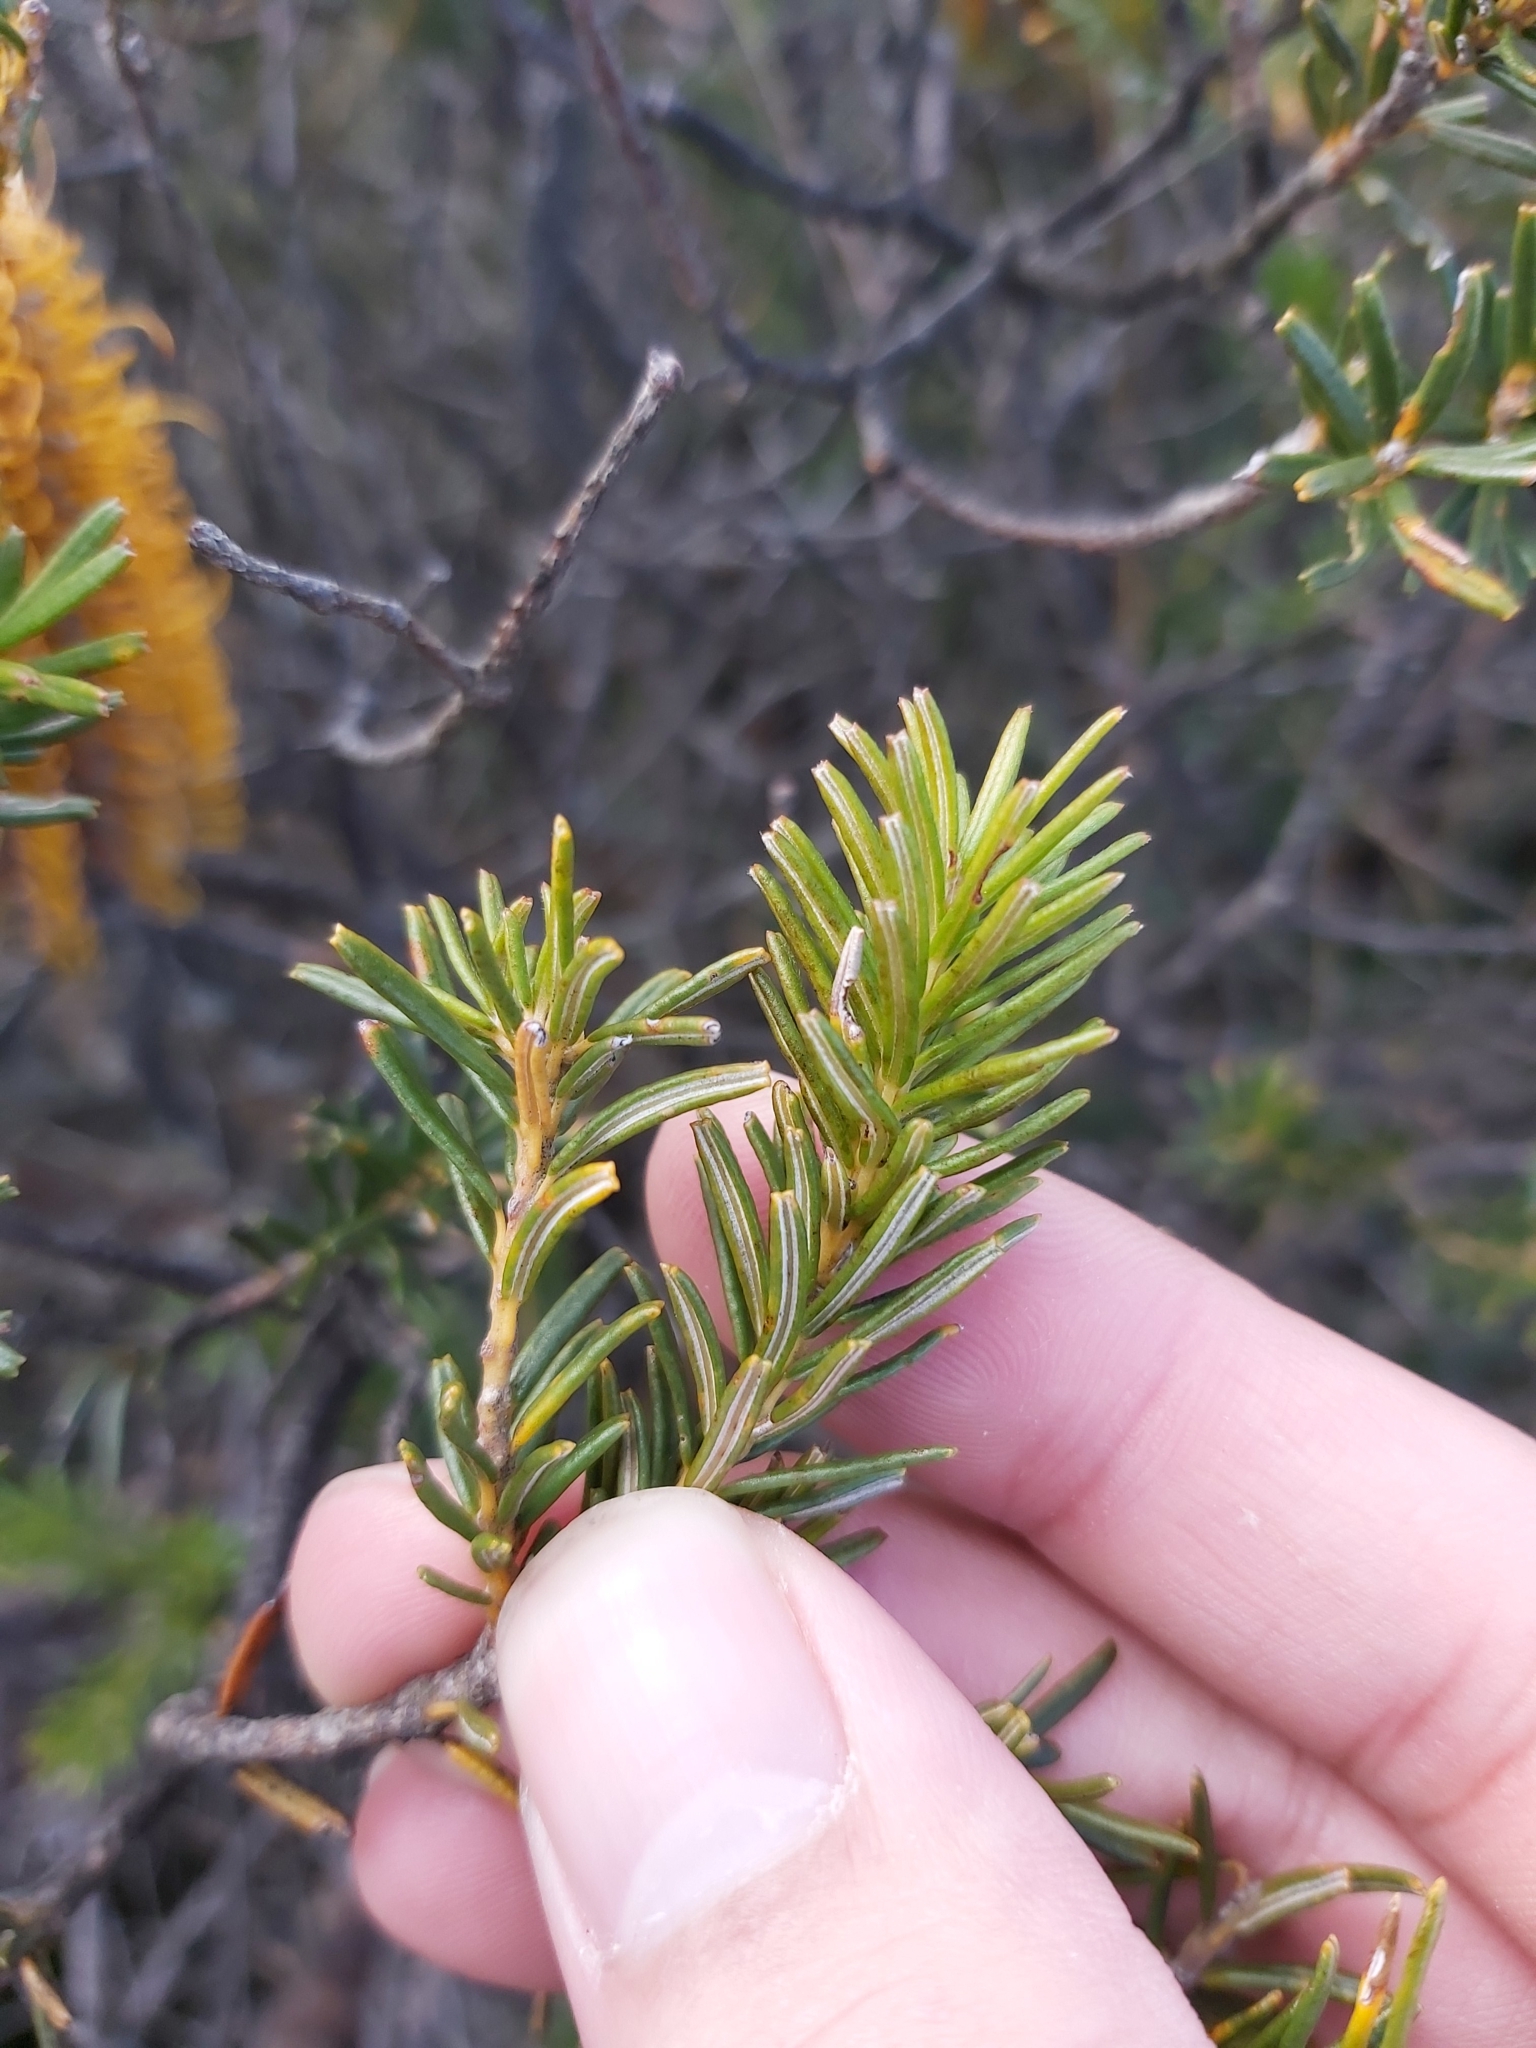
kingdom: Plantae
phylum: Tracheophyta
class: Magnoliopsida
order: Proteales
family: Proteaceae
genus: Banksia
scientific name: Banksia ericifolia
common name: Heath-leaf banksia
